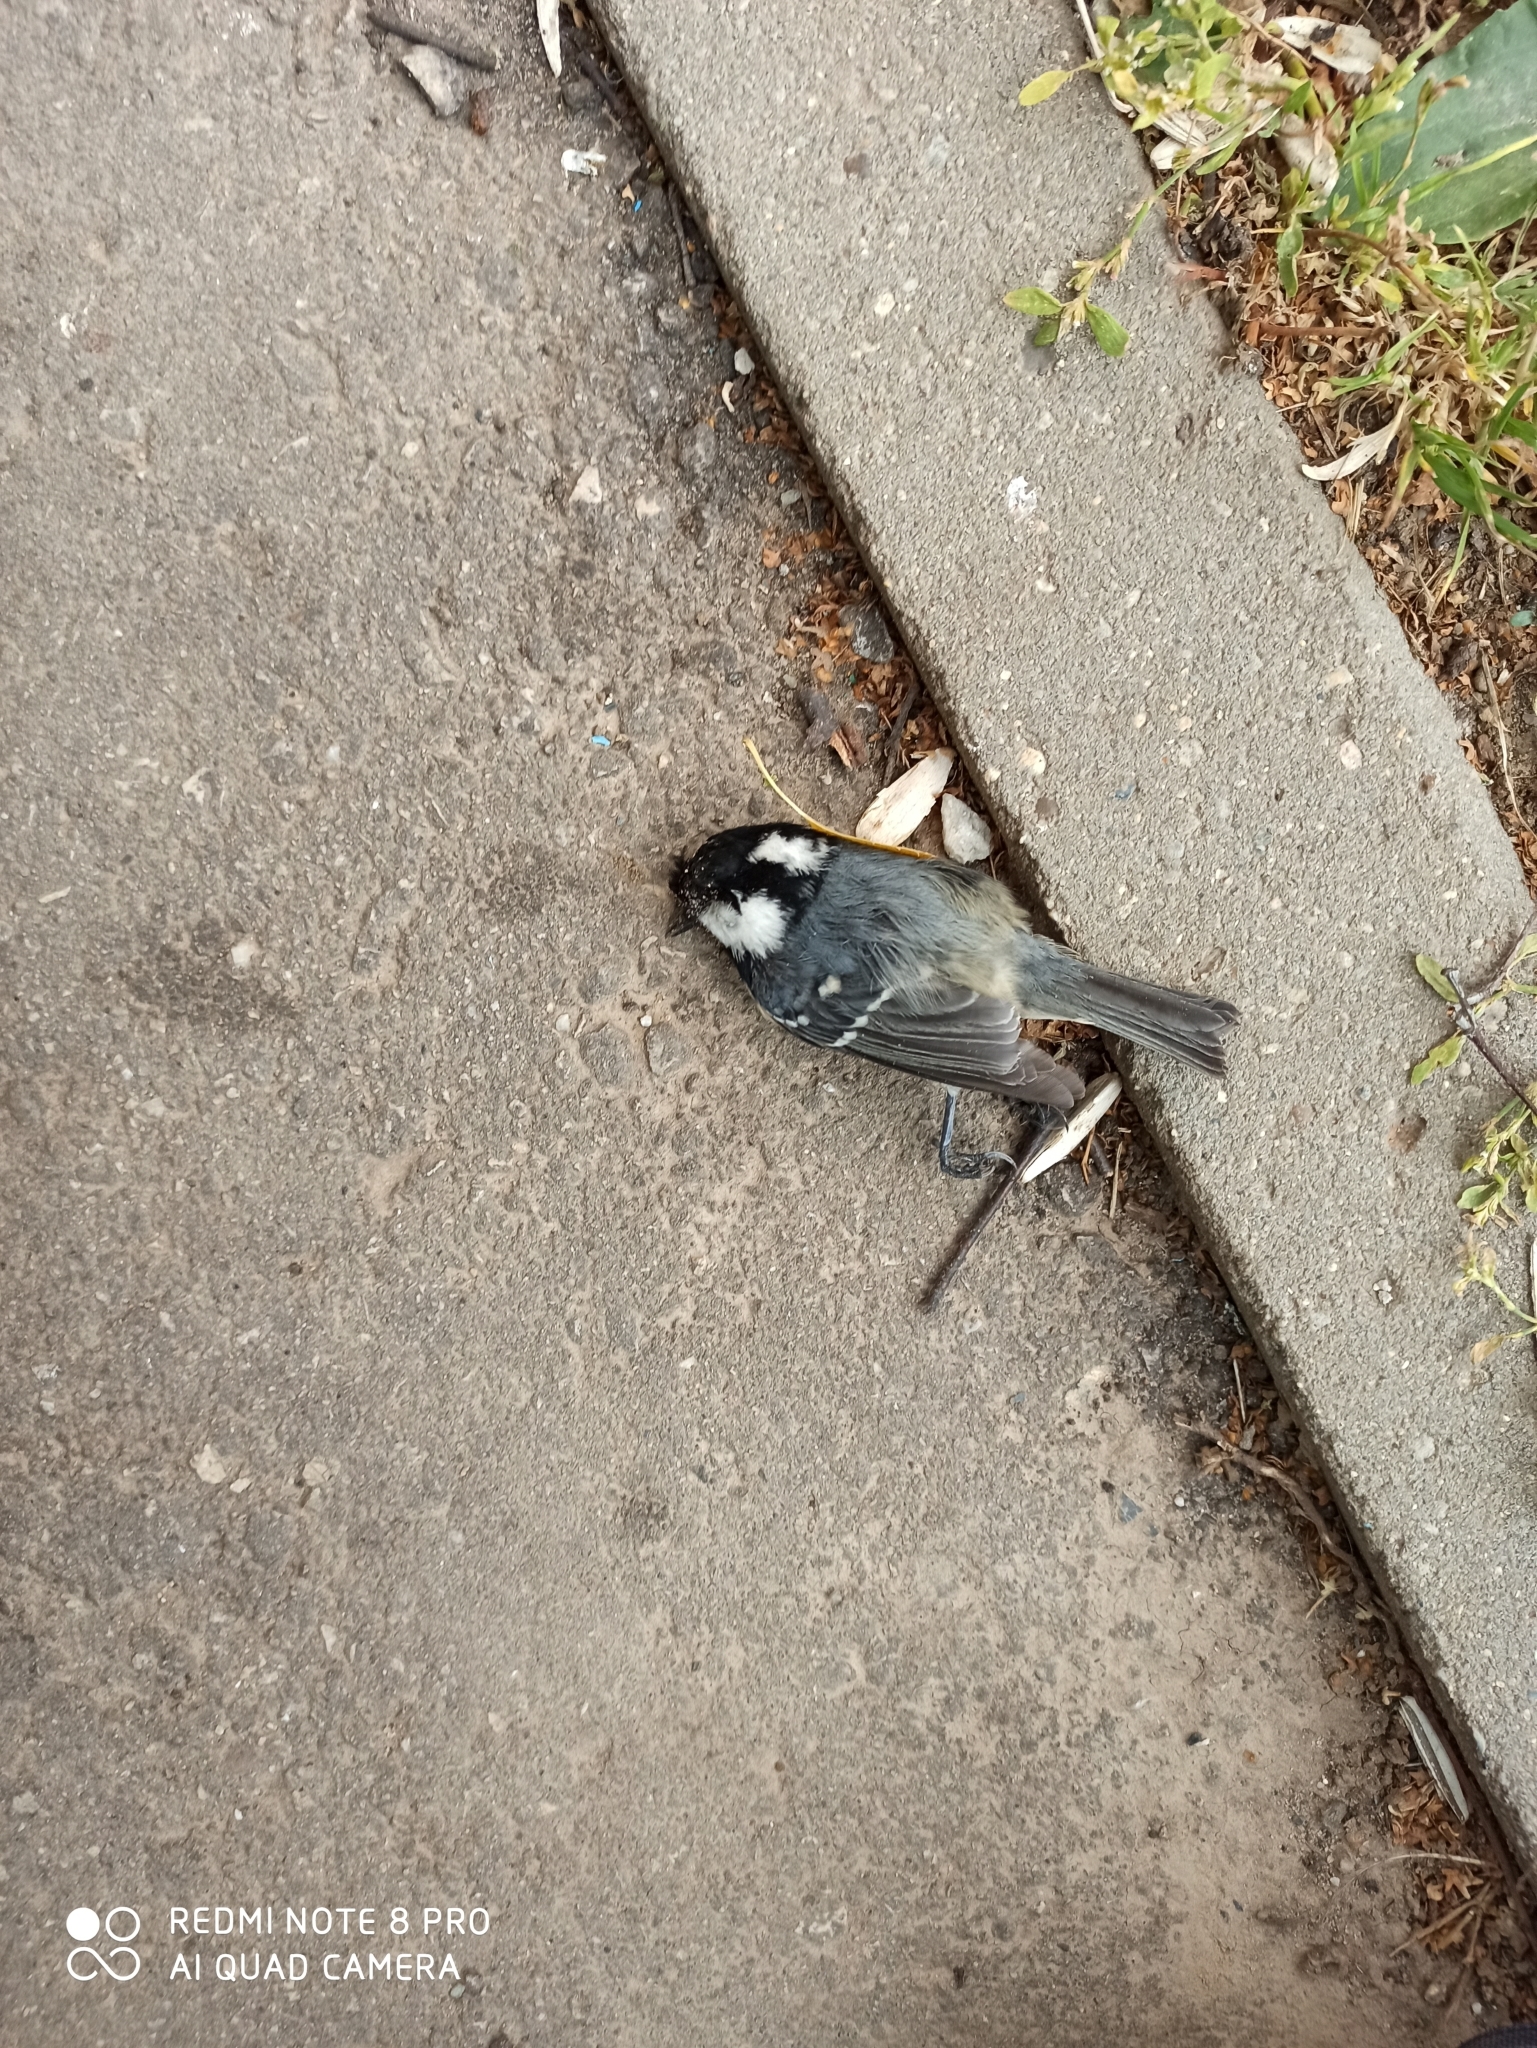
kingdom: Animalia
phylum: Chordata
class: Aves
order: Passeriformes
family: Paridae
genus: Periparus
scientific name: Periparus ater
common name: Coal tit
